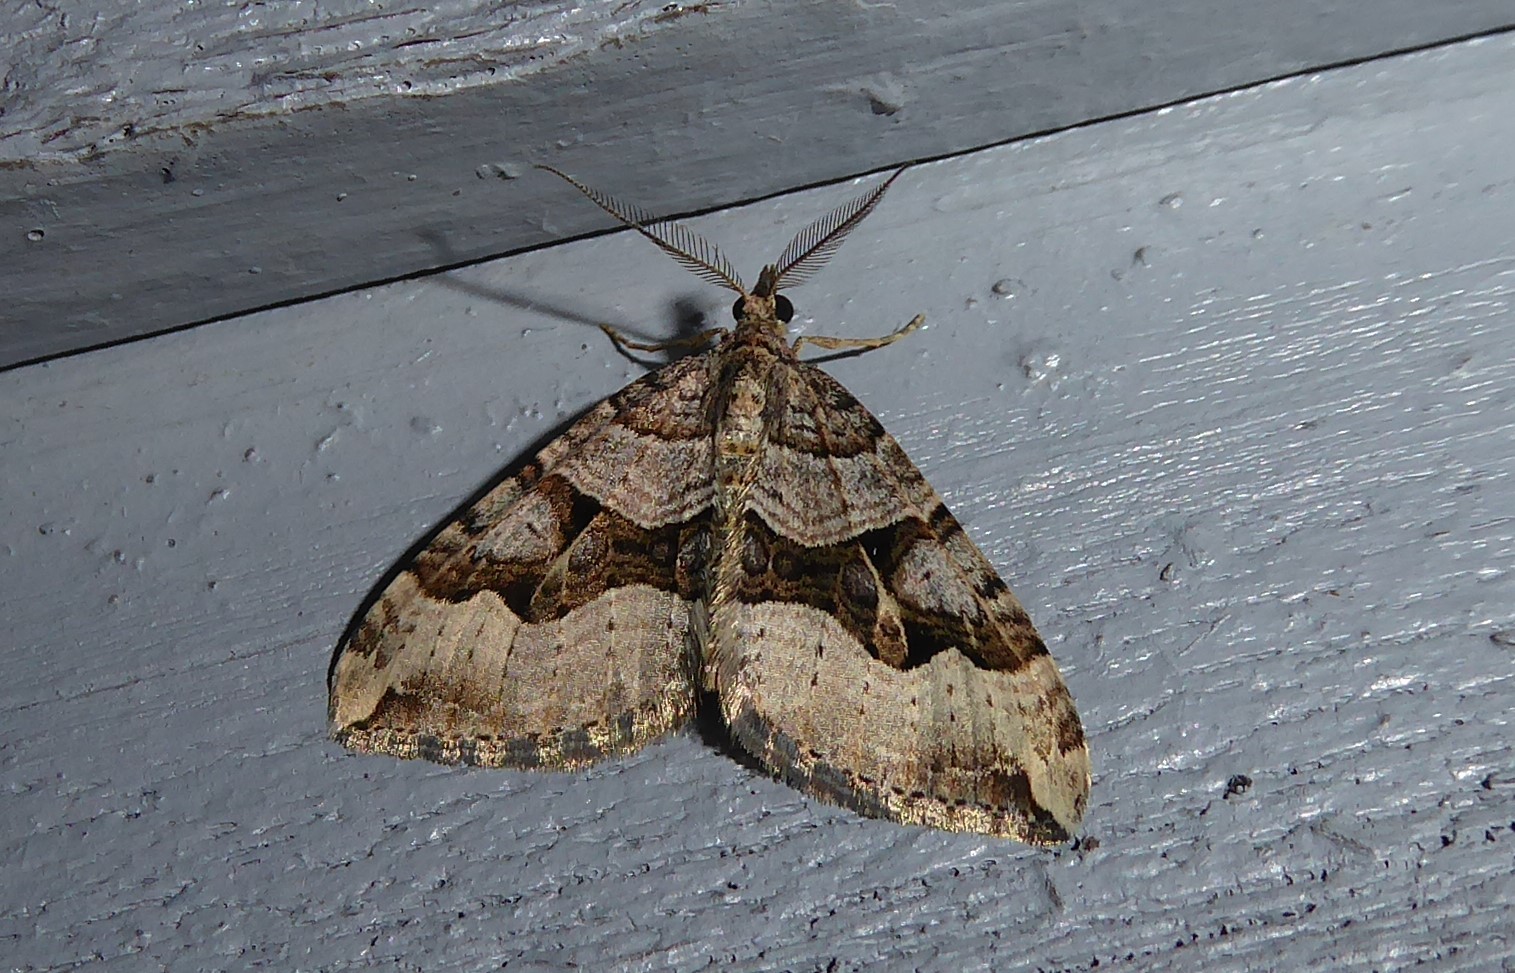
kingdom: Animalia
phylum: Arthropoda
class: Insecta
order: Lepidoptera
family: Geometridae
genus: Xanthorhoe
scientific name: Xanthorhoe semifissata
